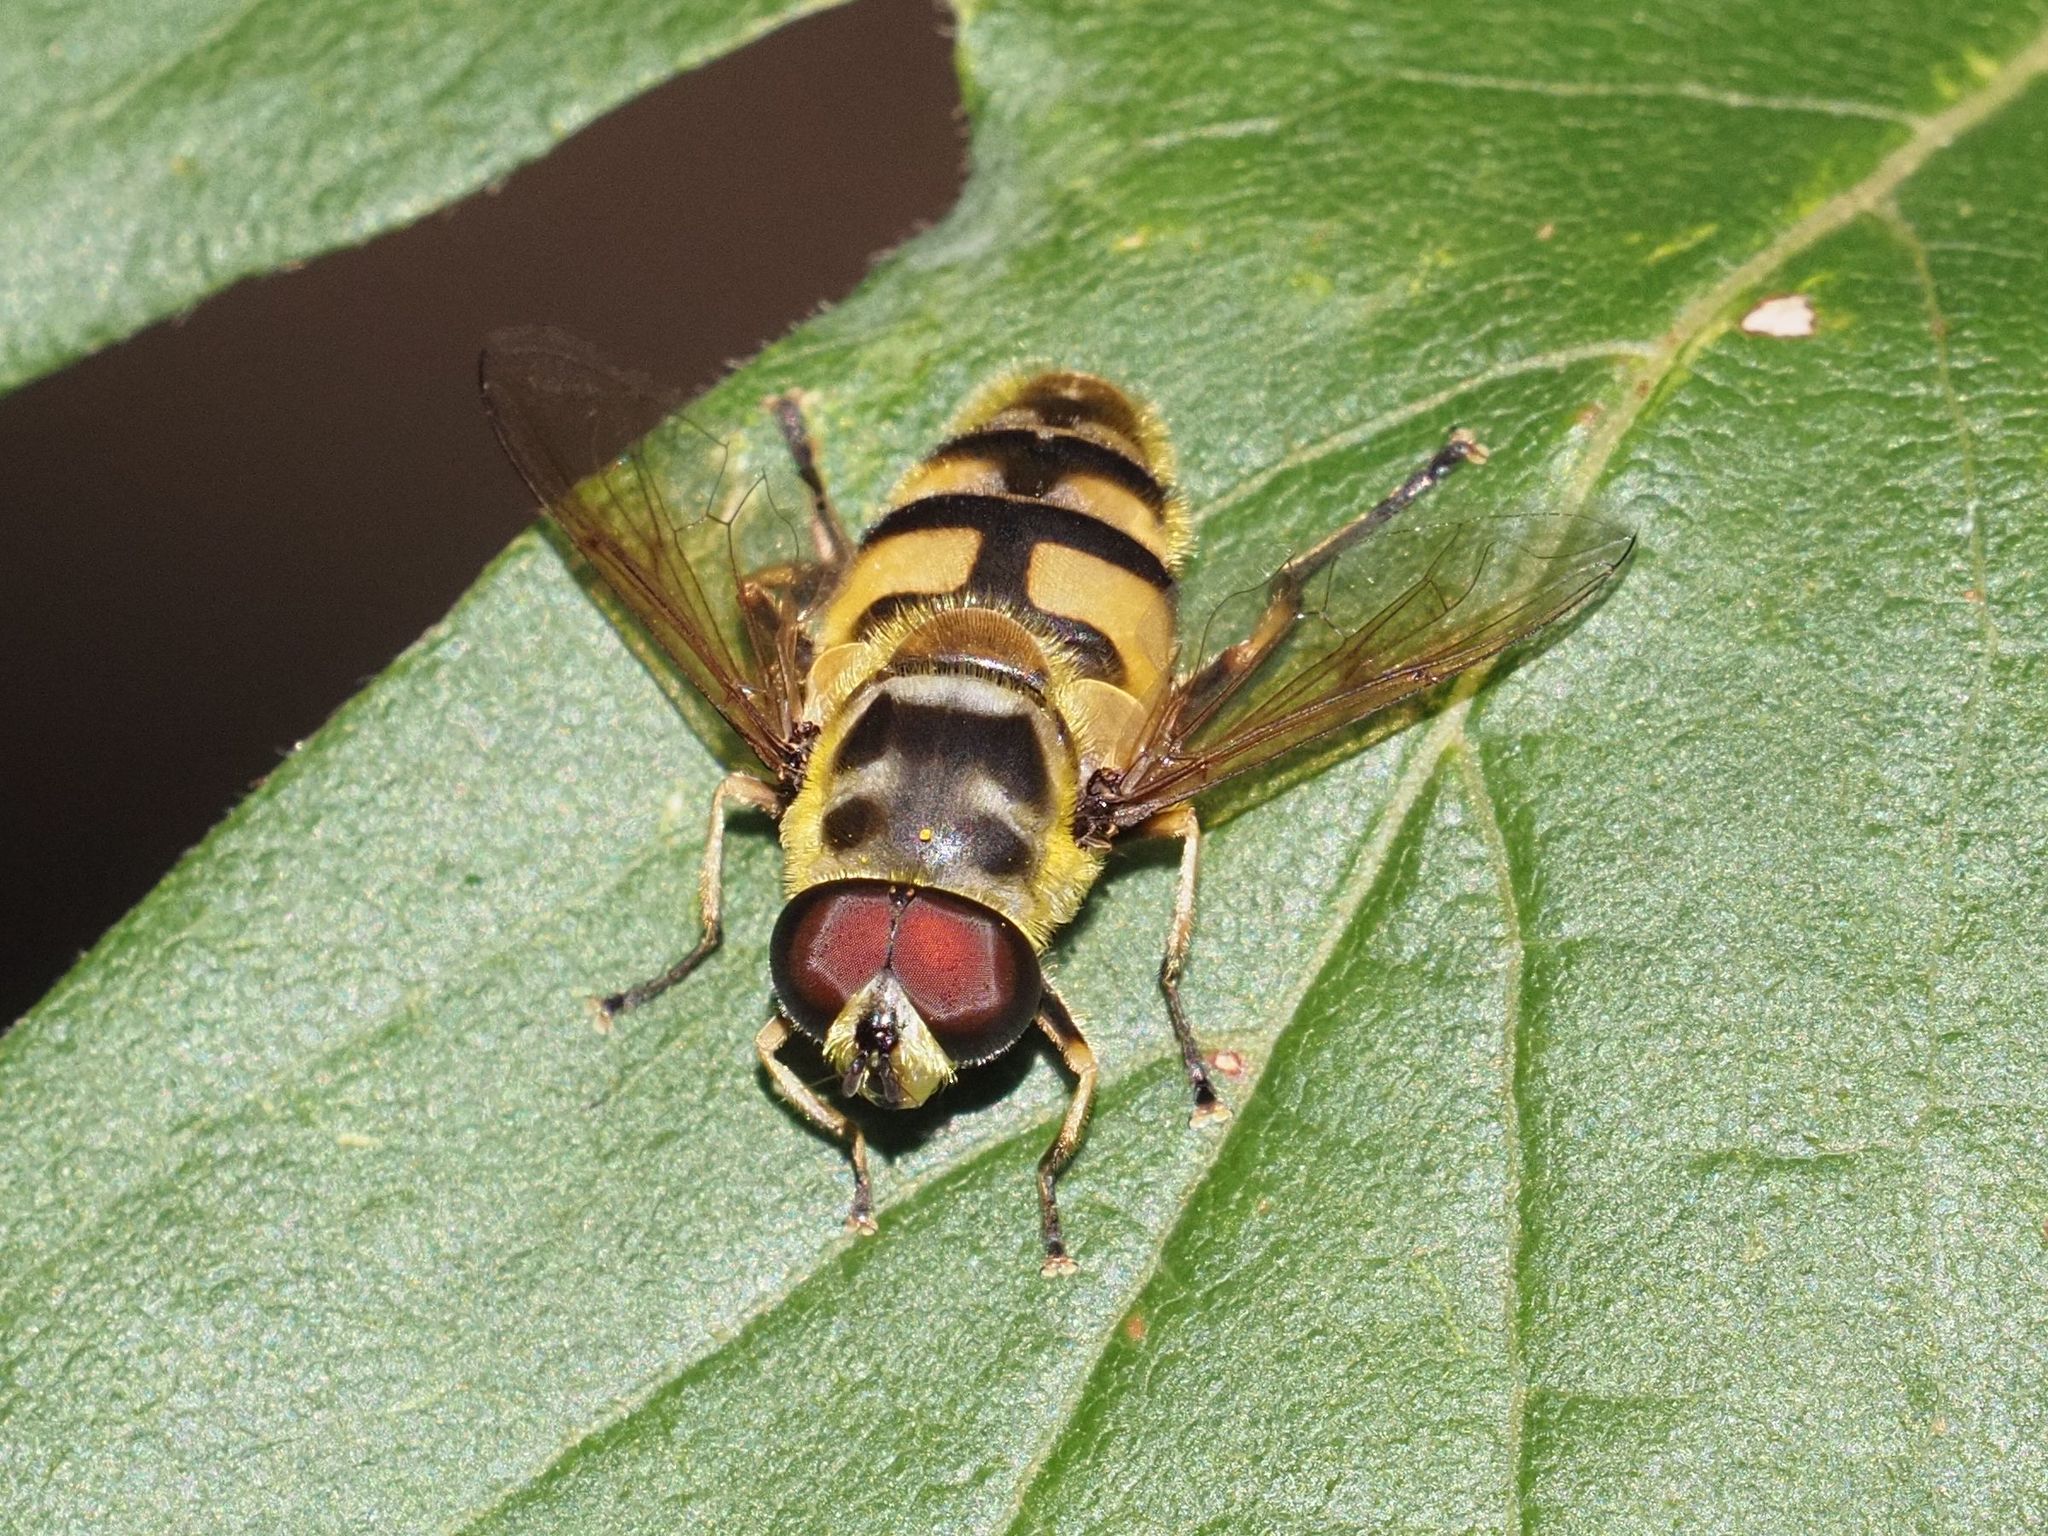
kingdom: Animalia
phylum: Arthropoda
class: Insecta
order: Diptera
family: Syrphidae
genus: Myathropa
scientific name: Myathropa florea
